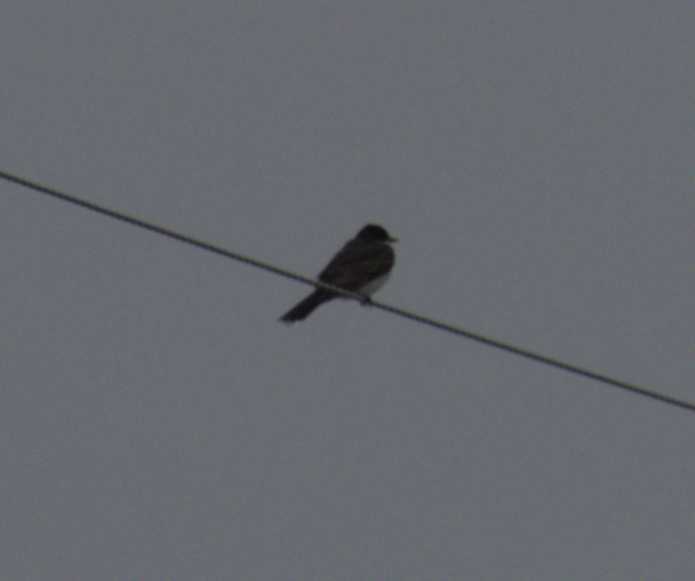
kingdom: Animalia
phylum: Chordata
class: Aves
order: Passeriformes
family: Tyrannidae
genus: Tyrannus
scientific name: Tyrannus tyrannus
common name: Eastern kingbird
